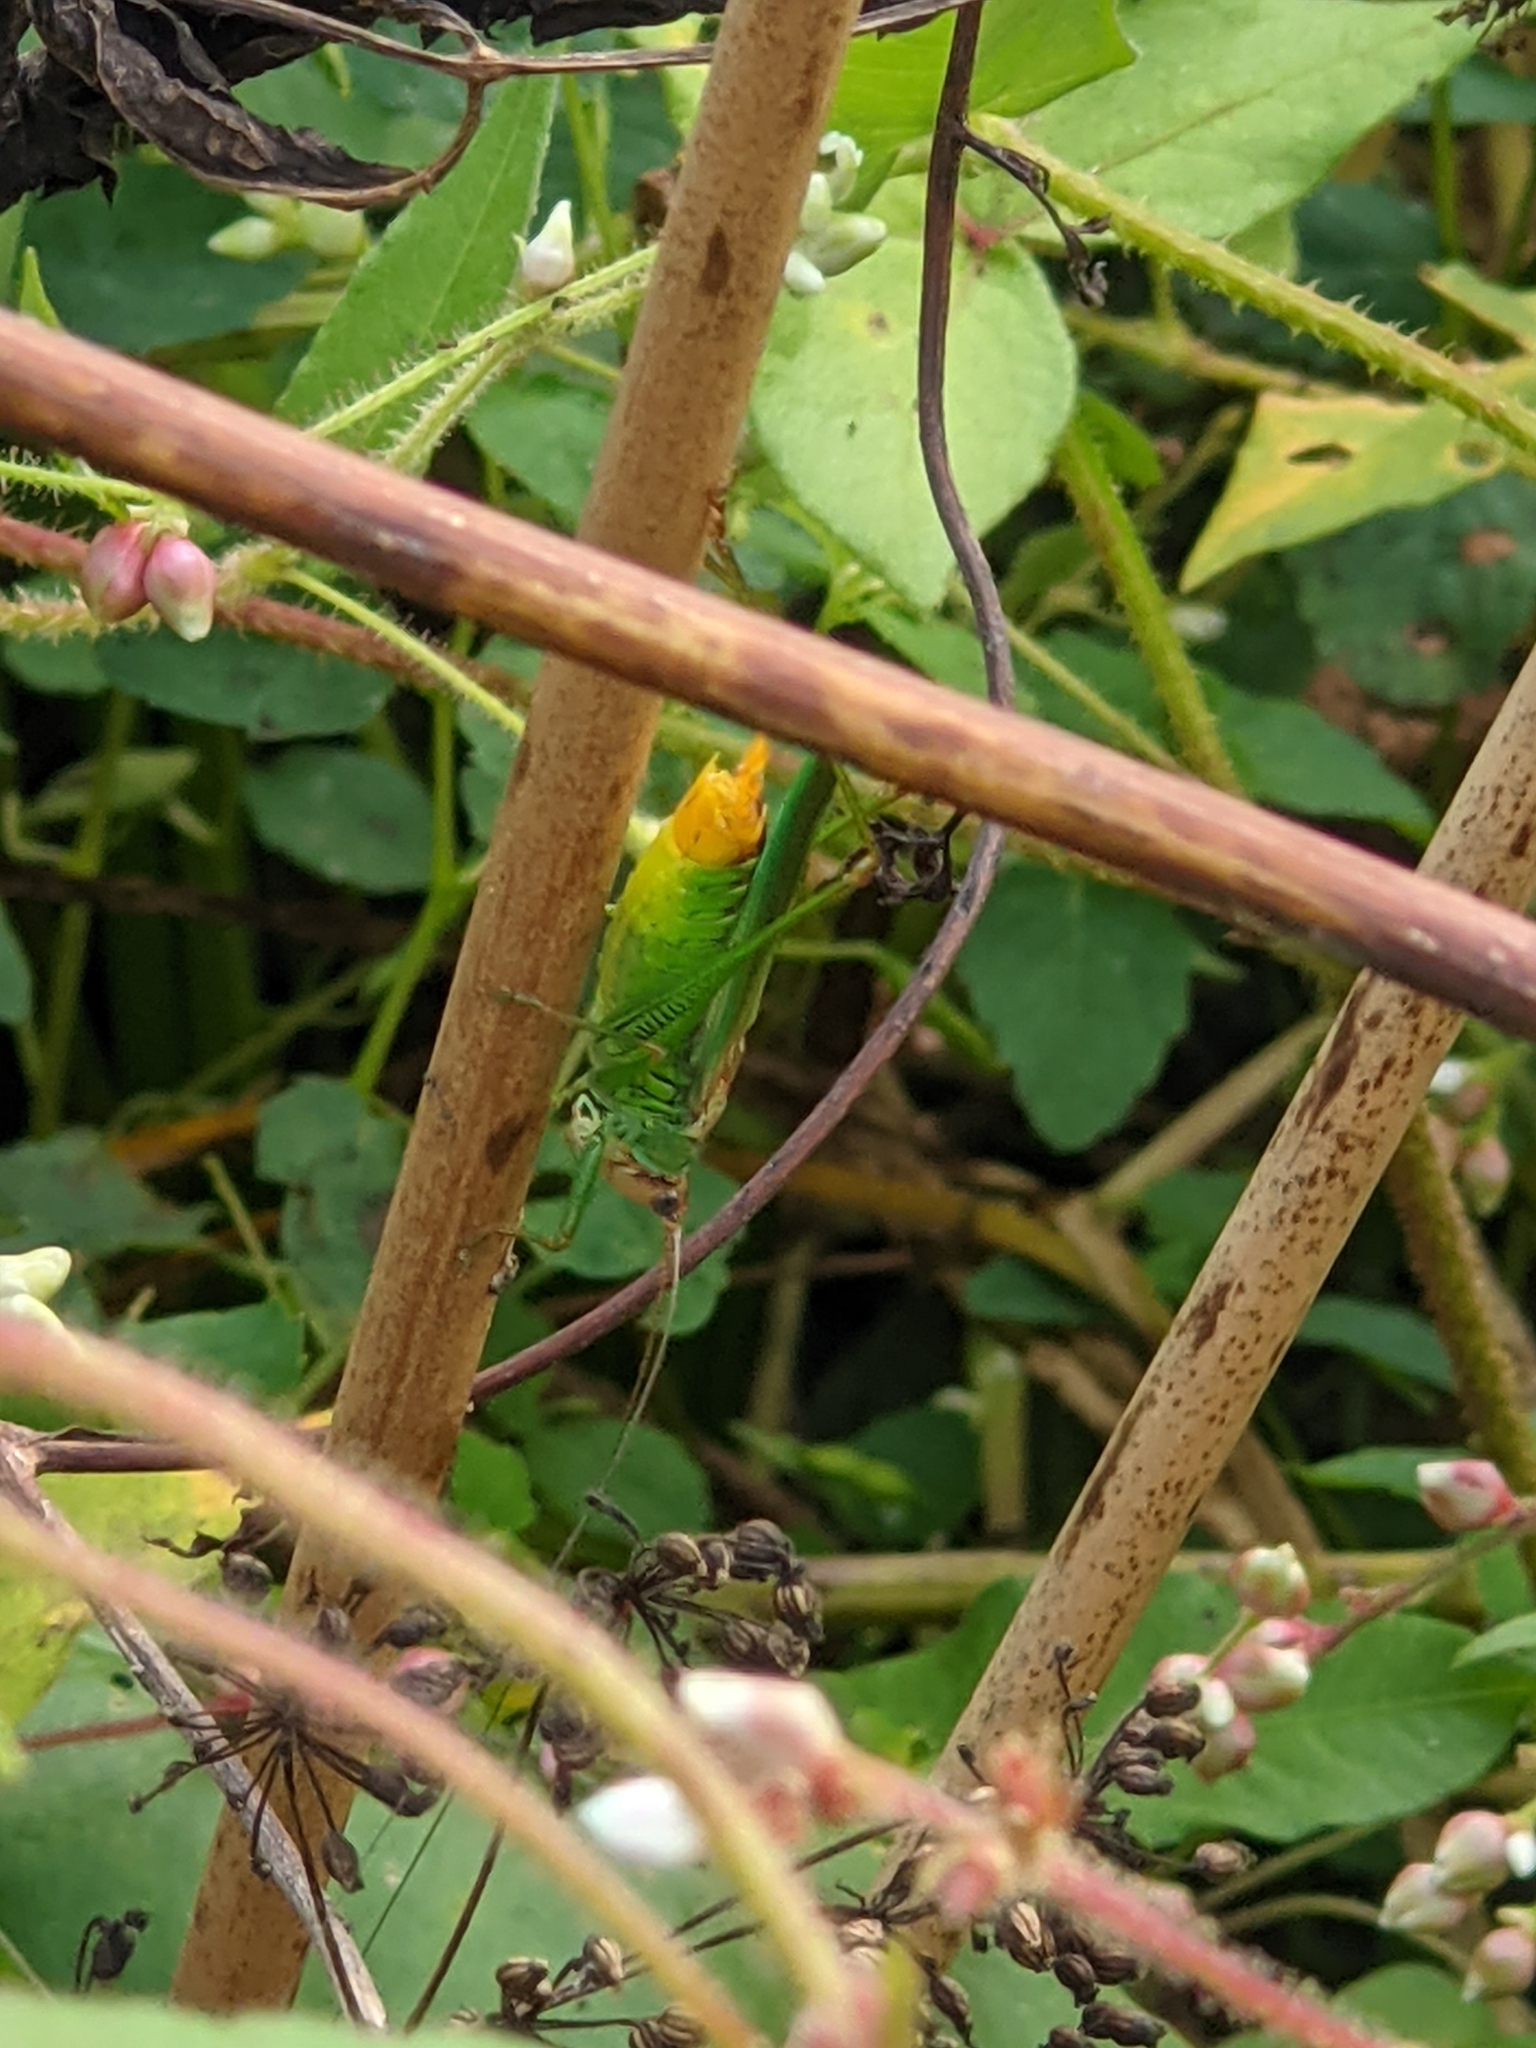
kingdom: Animalia
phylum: Arthropoda
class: Insecta
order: Orthoptera
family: Tettigoniidae
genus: Orchelimum
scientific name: Orchelimum pulchellum
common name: Handsome meadow katydid
